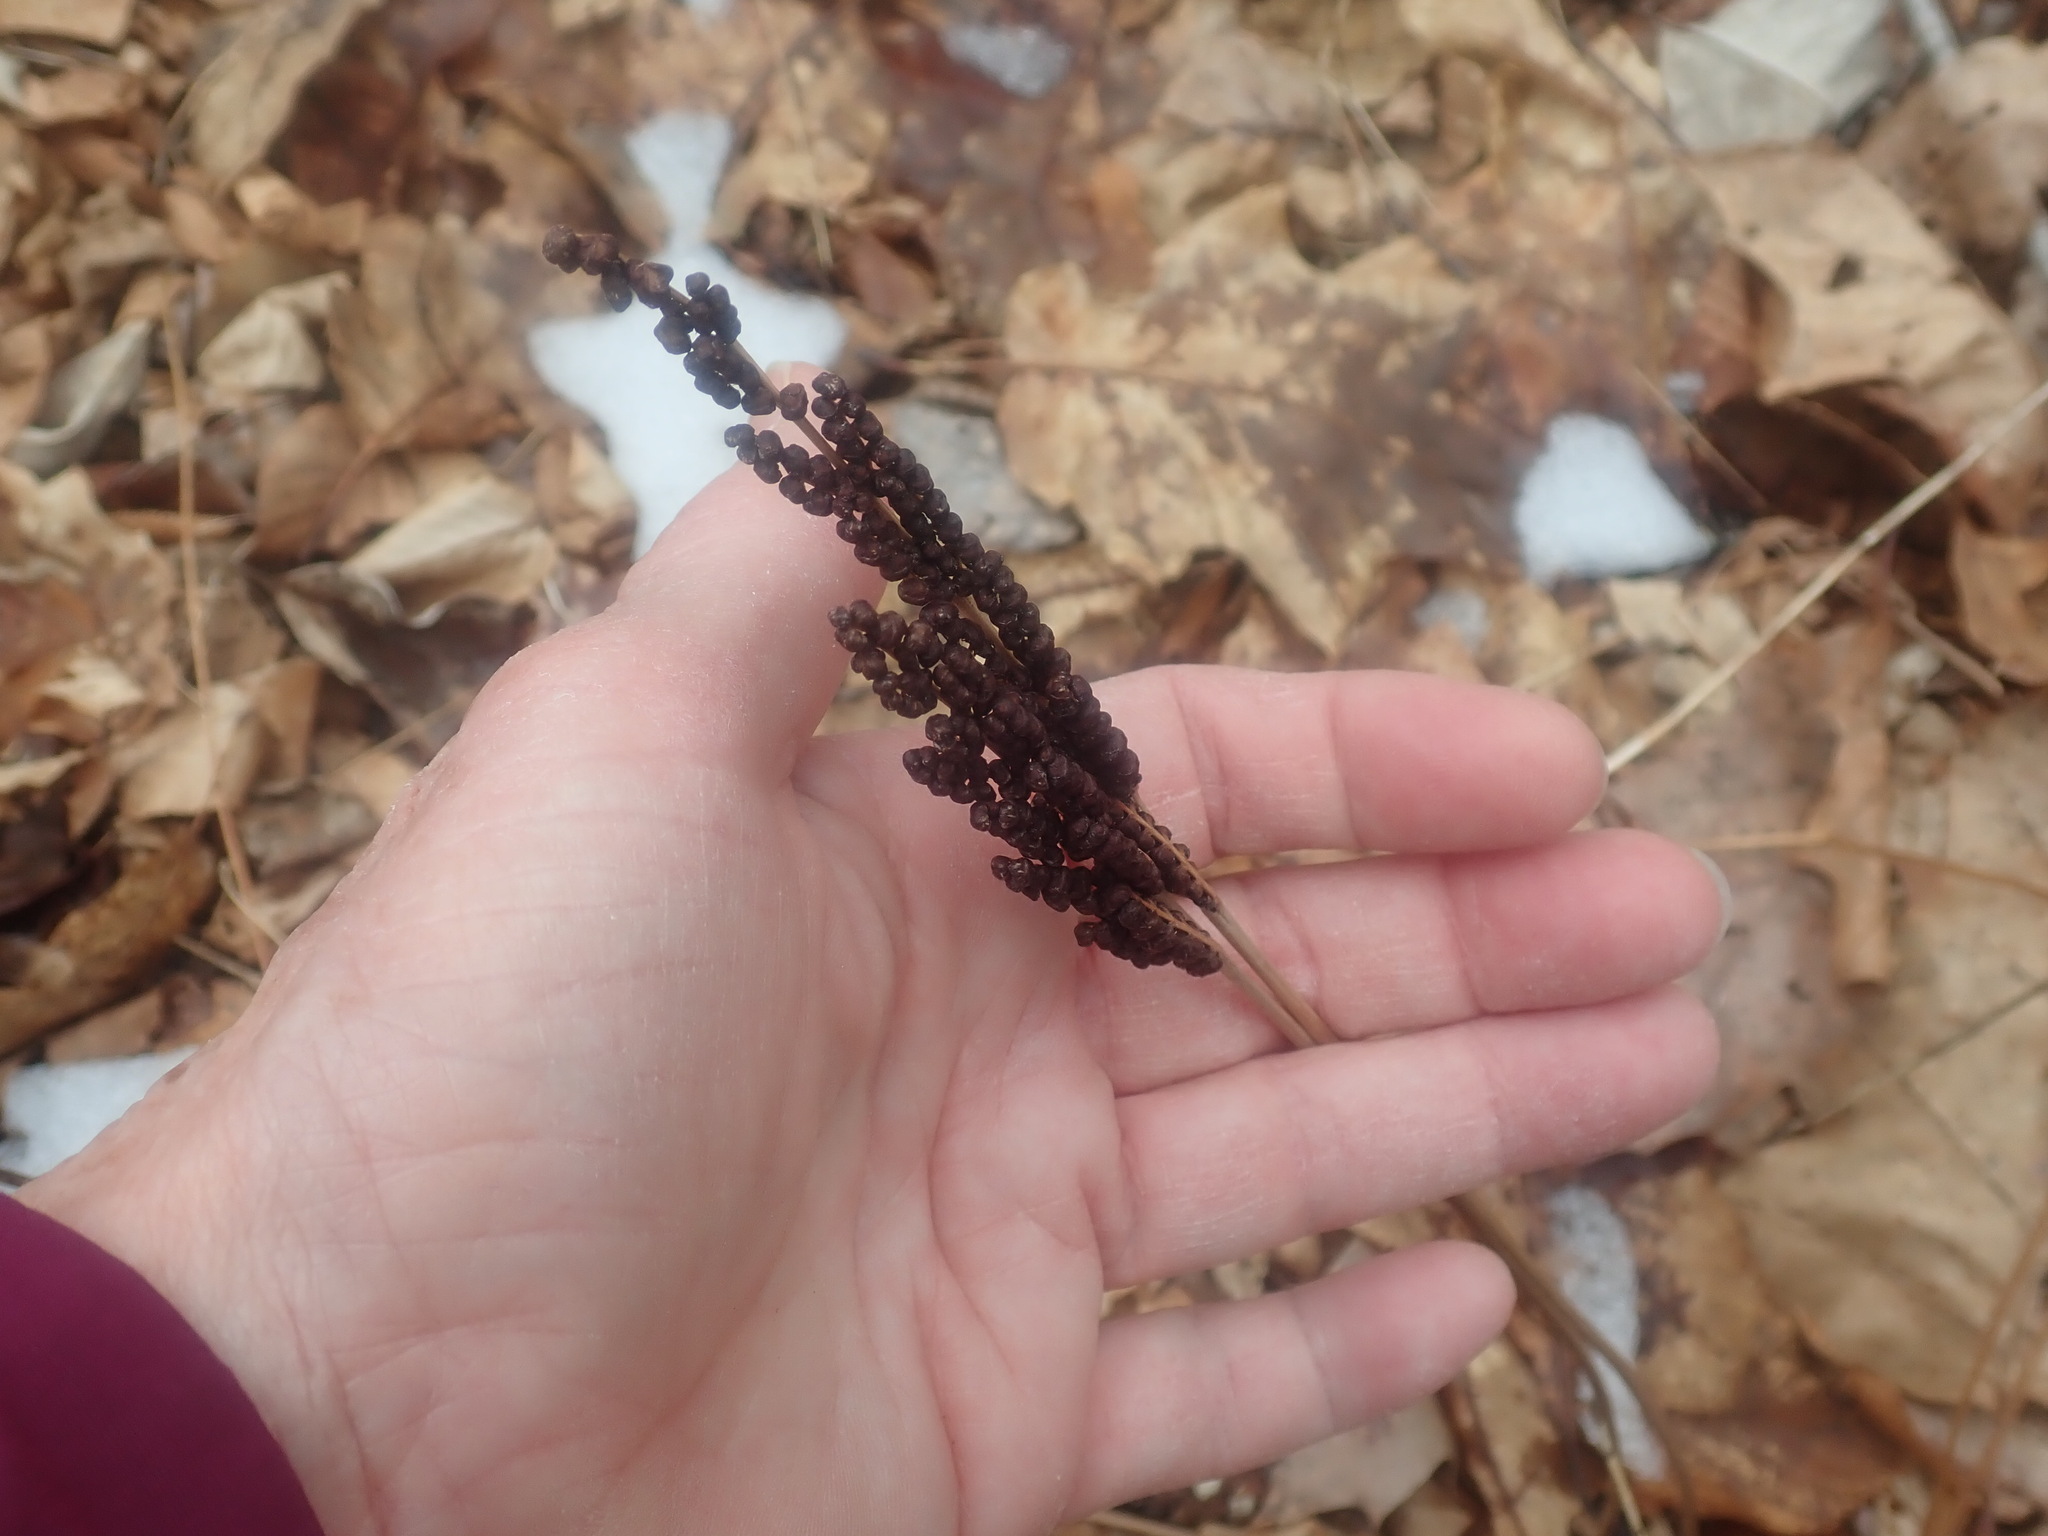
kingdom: Plantae
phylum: Tracheophyta
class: Polypodiopsida
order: Polypodiales
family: Onocleaceae
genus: Onoclea
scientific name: Onoclea sensibilis
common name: Sensitive fern
